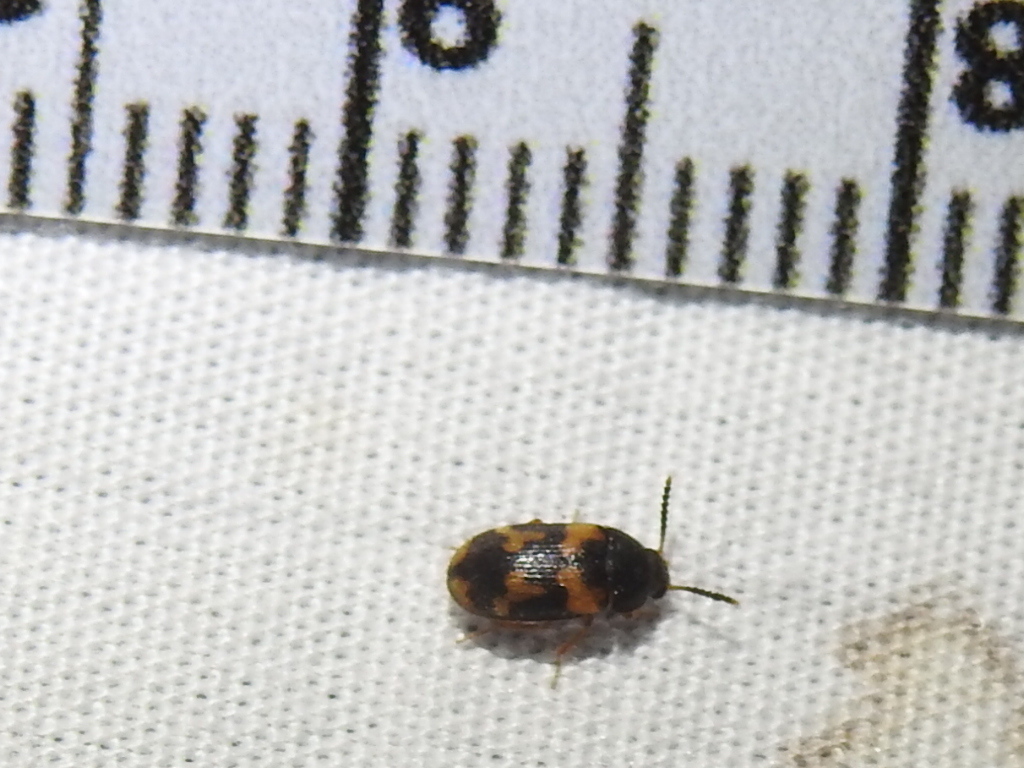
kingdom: Animalia
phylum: Arthropoda
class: Insecta
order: Coleoptera
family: Mycetophagidae
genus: Mycetophagus
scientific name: Mycetophagus serrulatus
